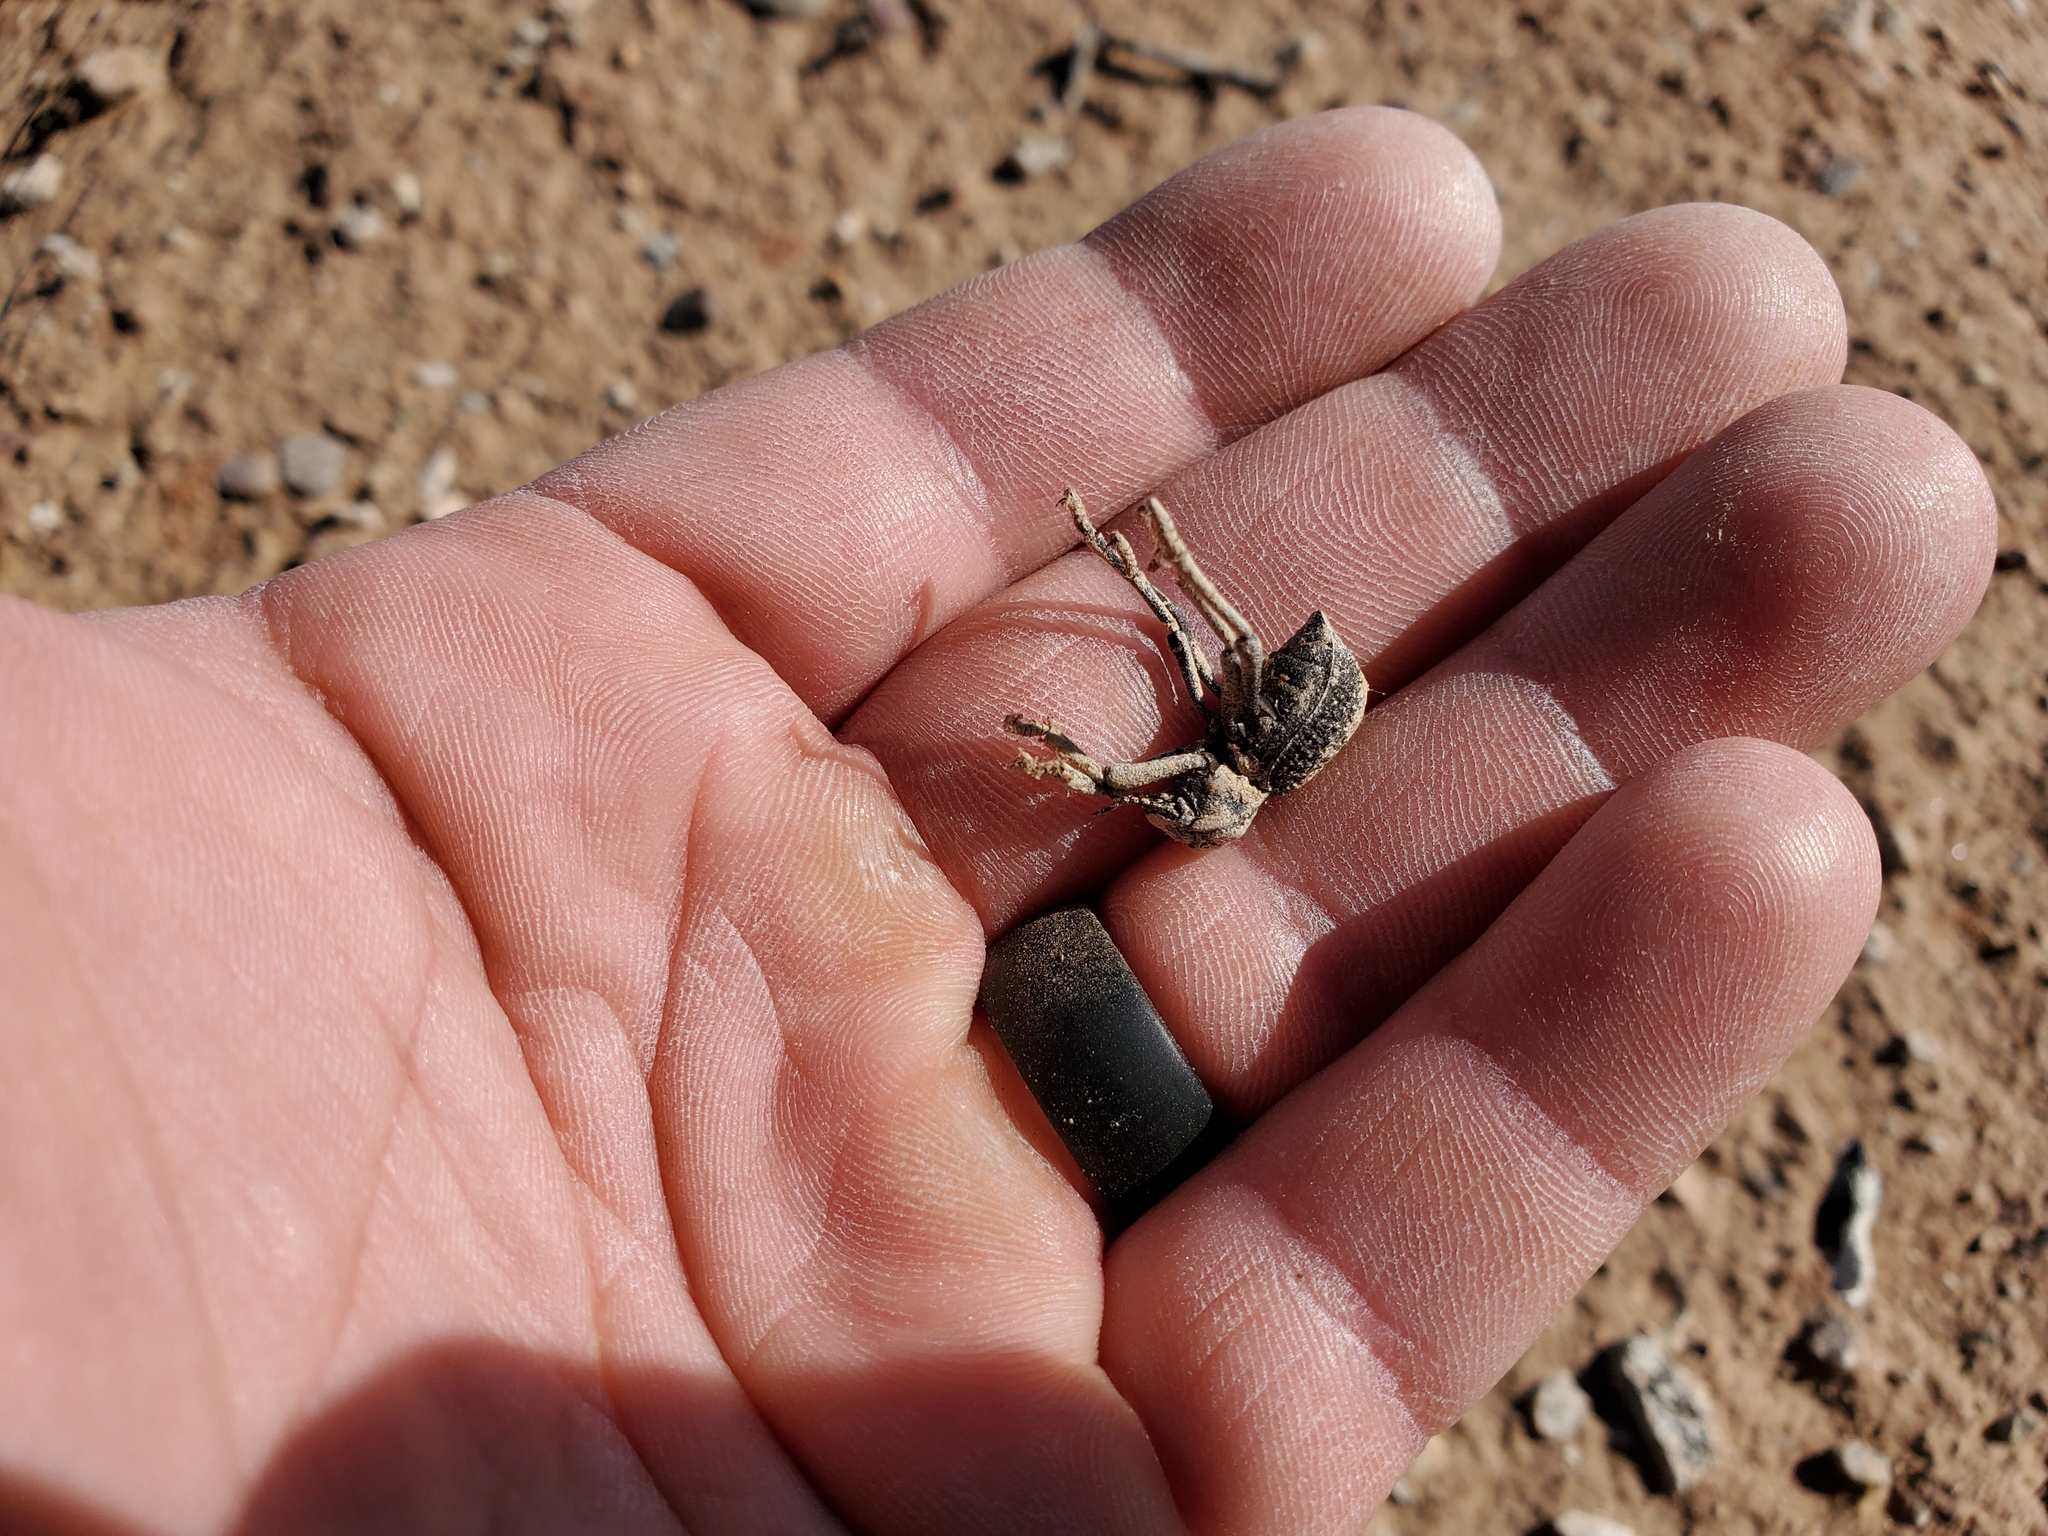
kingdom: Animalia
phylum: Arthropoda
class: Insecta
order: Coleoptera
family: Tenebrionidae
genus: Asbolus
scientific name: Asbolus verrucosus
